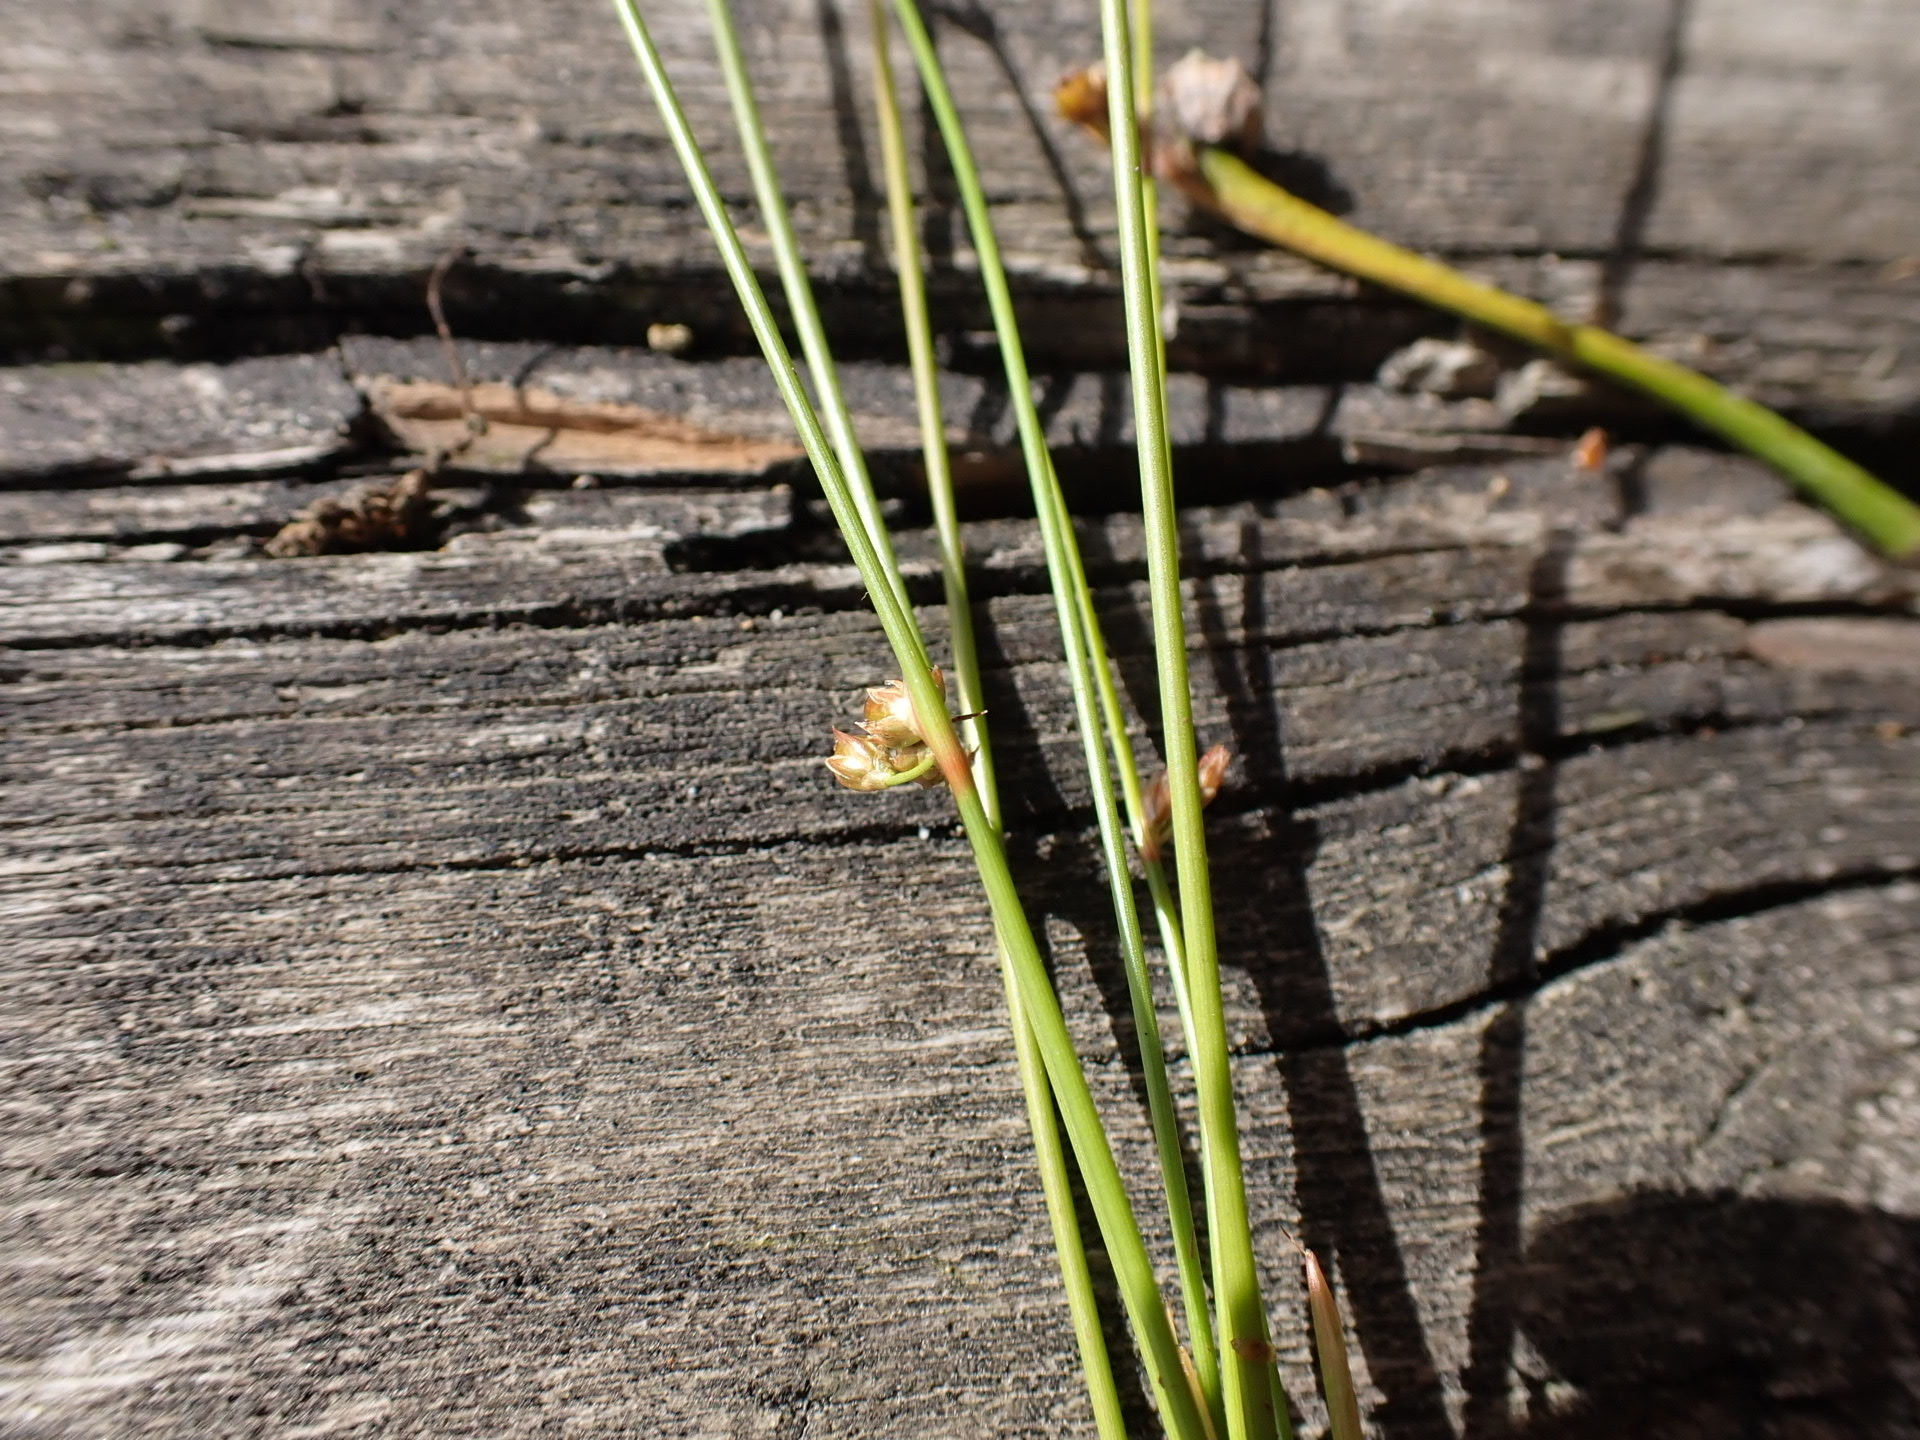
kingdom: Plantae
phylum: Tracheophyta
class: Liliopsida
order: Poales
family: Juncaceae
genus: Juncus
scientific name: Juncus filiformis
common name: Thread rush
